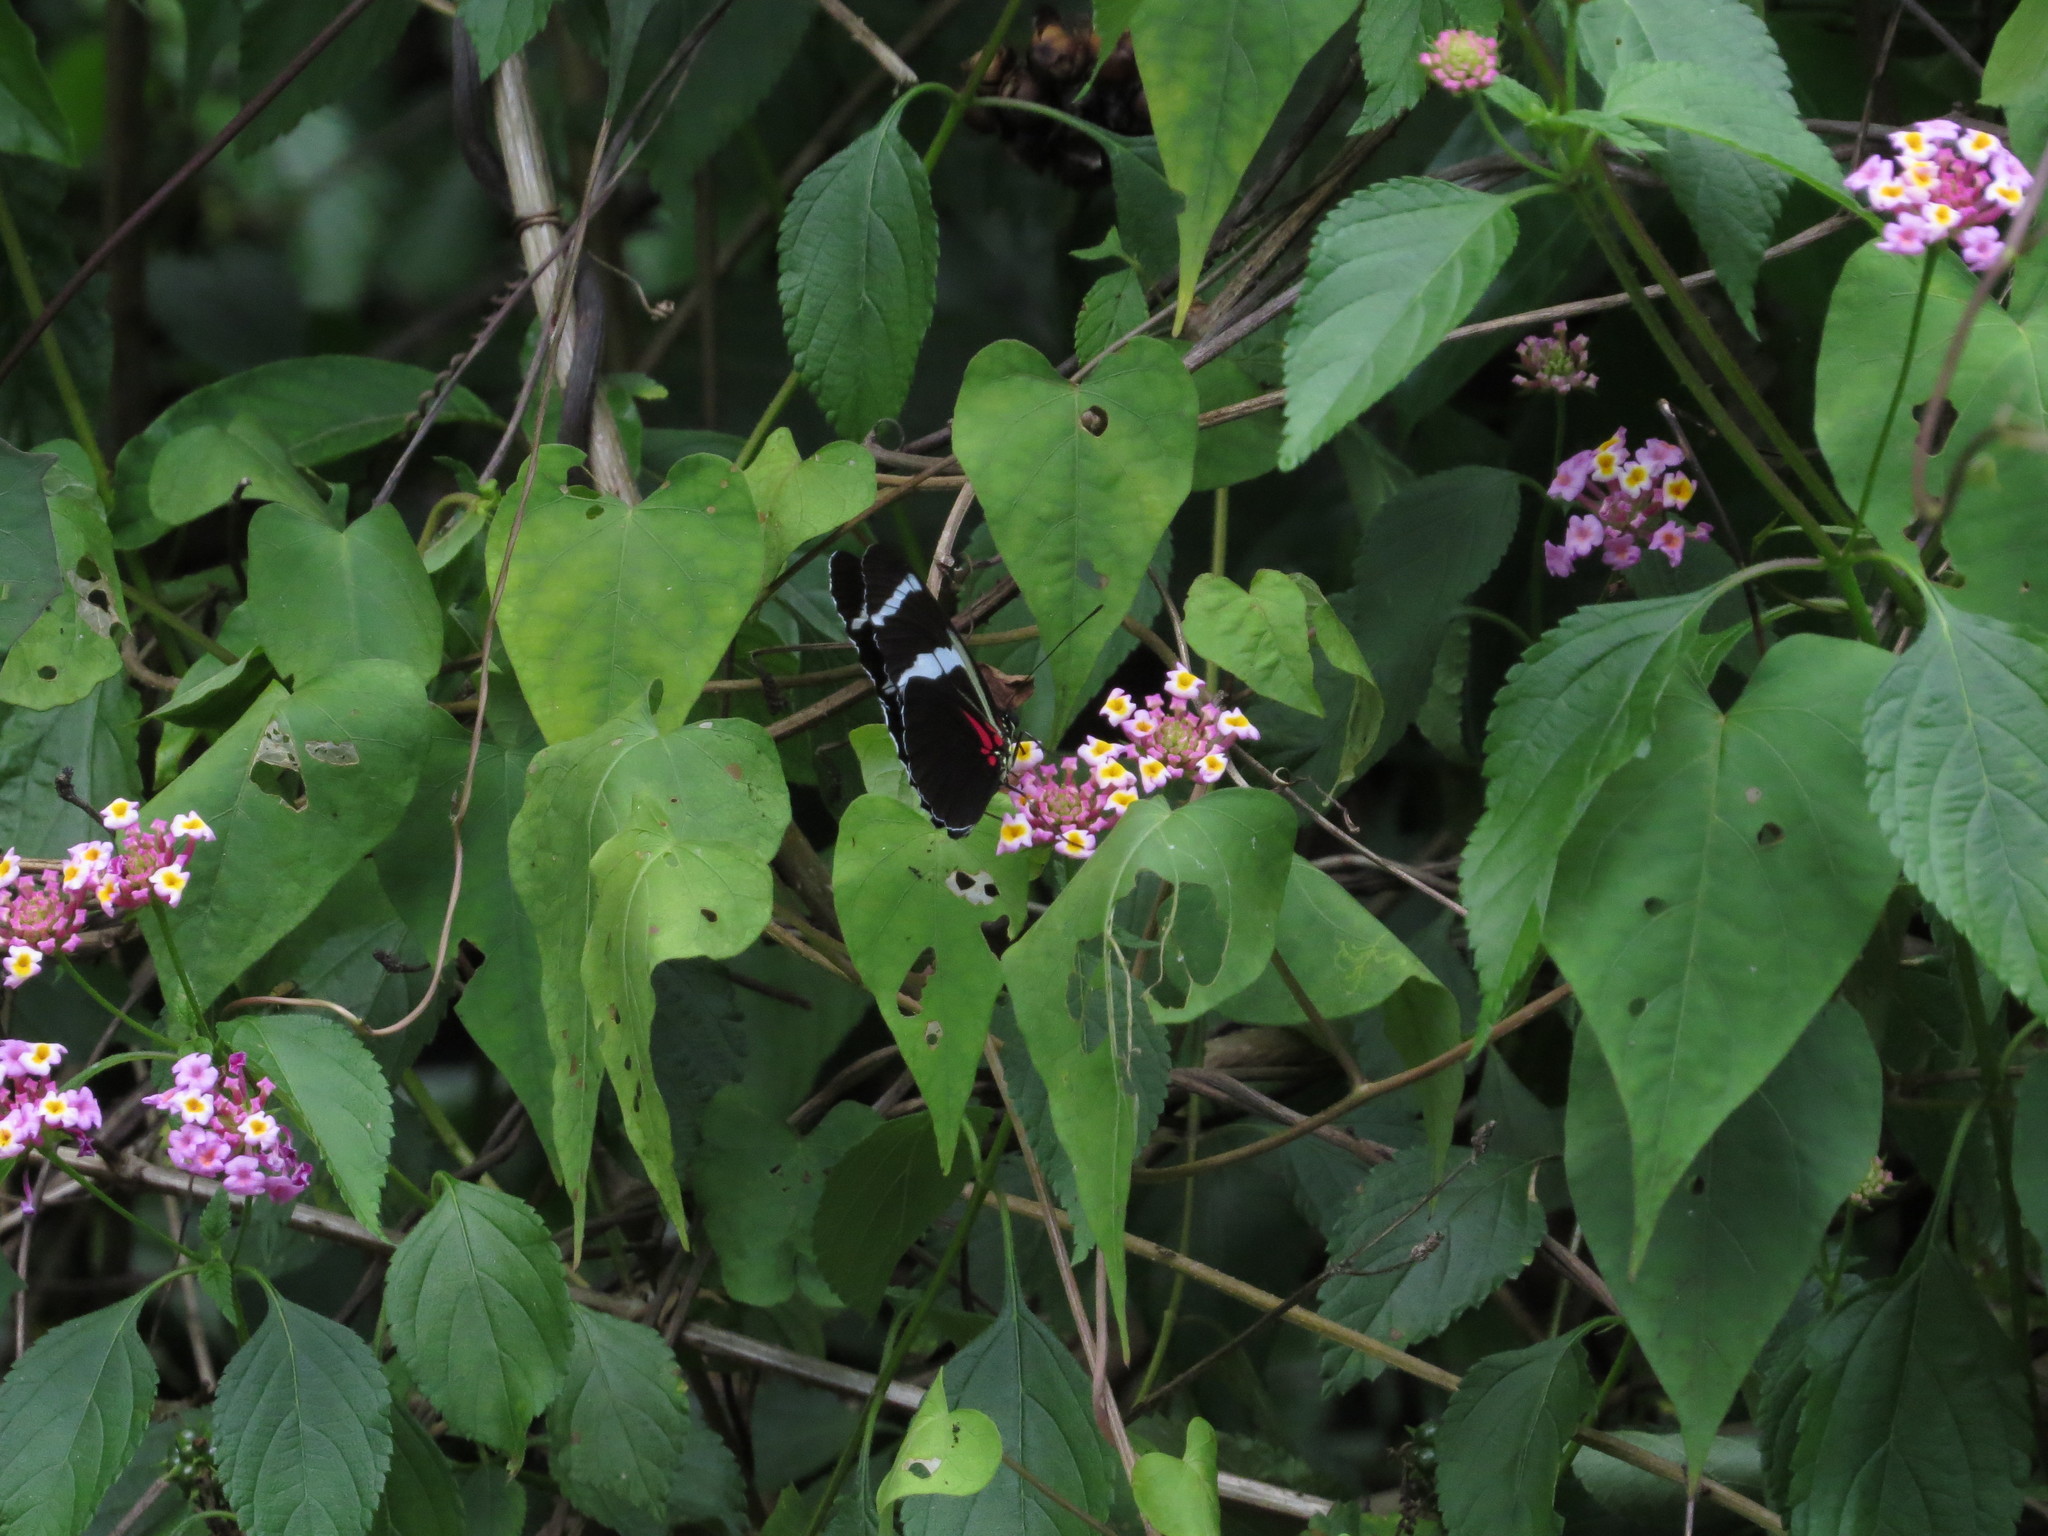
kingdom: Animalia
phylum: Arthropoda
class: Insecta
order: Lepidoptera
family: Nymphalidae
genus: Heliconius
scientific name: Heliconius antiochus
